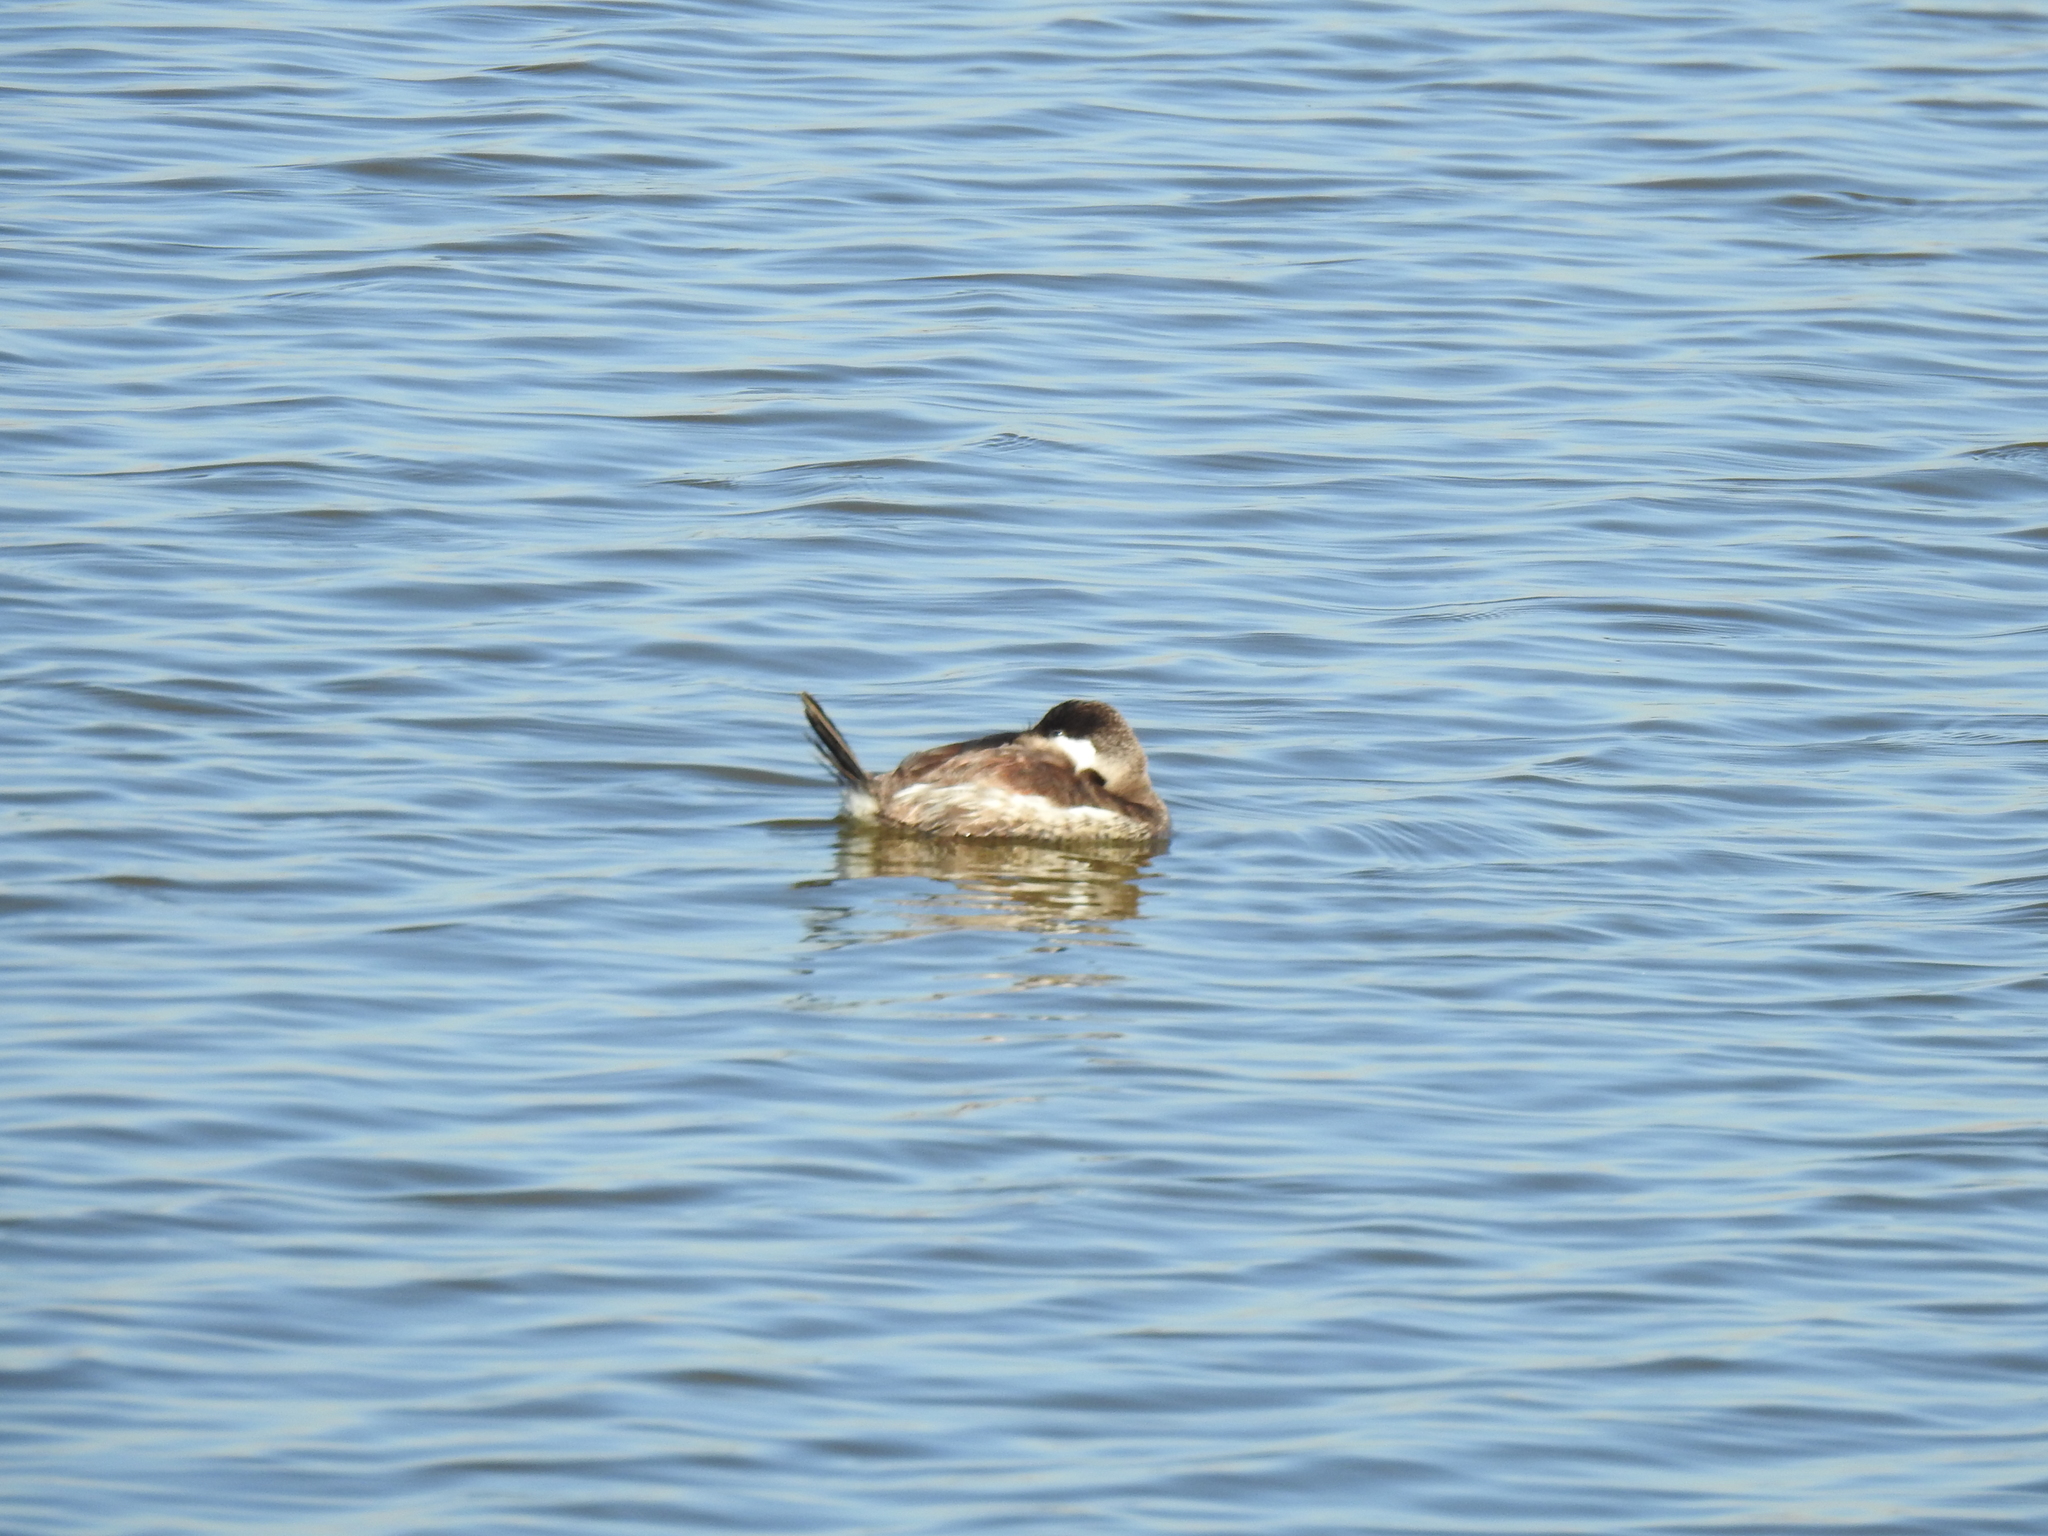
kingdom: Animalia
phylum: Chordata
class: Aves
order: Anseriformes
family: Anatidae
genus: Oxyura
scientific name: Oxyura jamaicensis
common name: Ruddy duck
